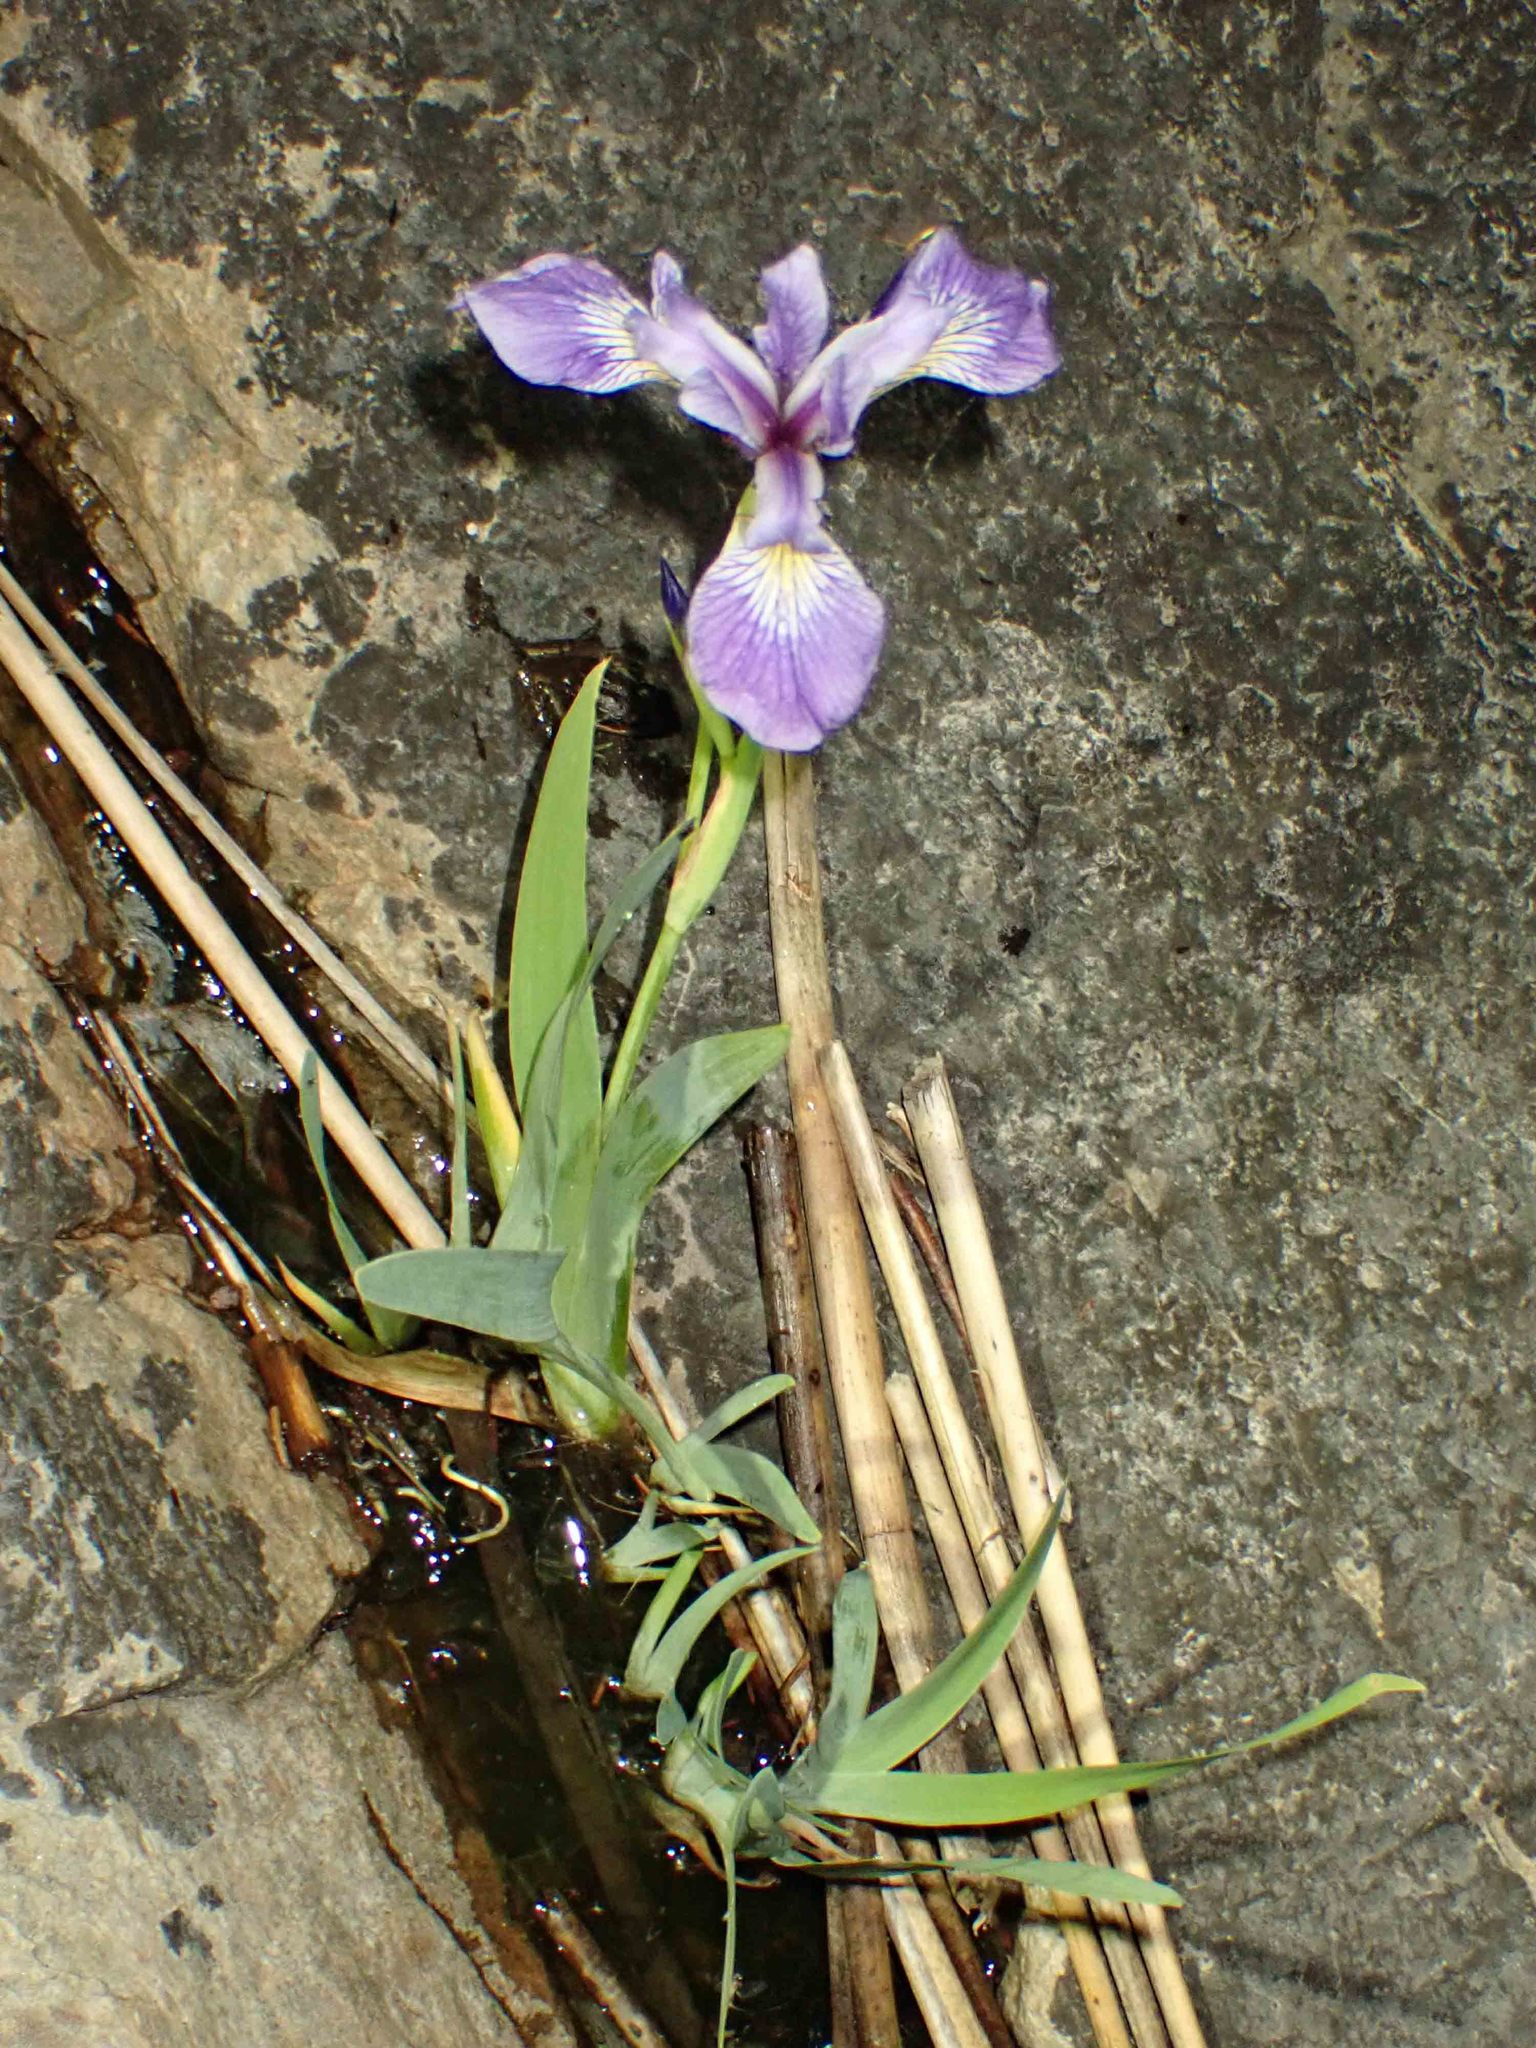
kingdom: Plantae
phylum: Tracheophyta
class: Liliopsida
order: Asparagales
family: Iridaceae
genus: Iris
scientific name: Iris versicolor
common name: Purple iris
